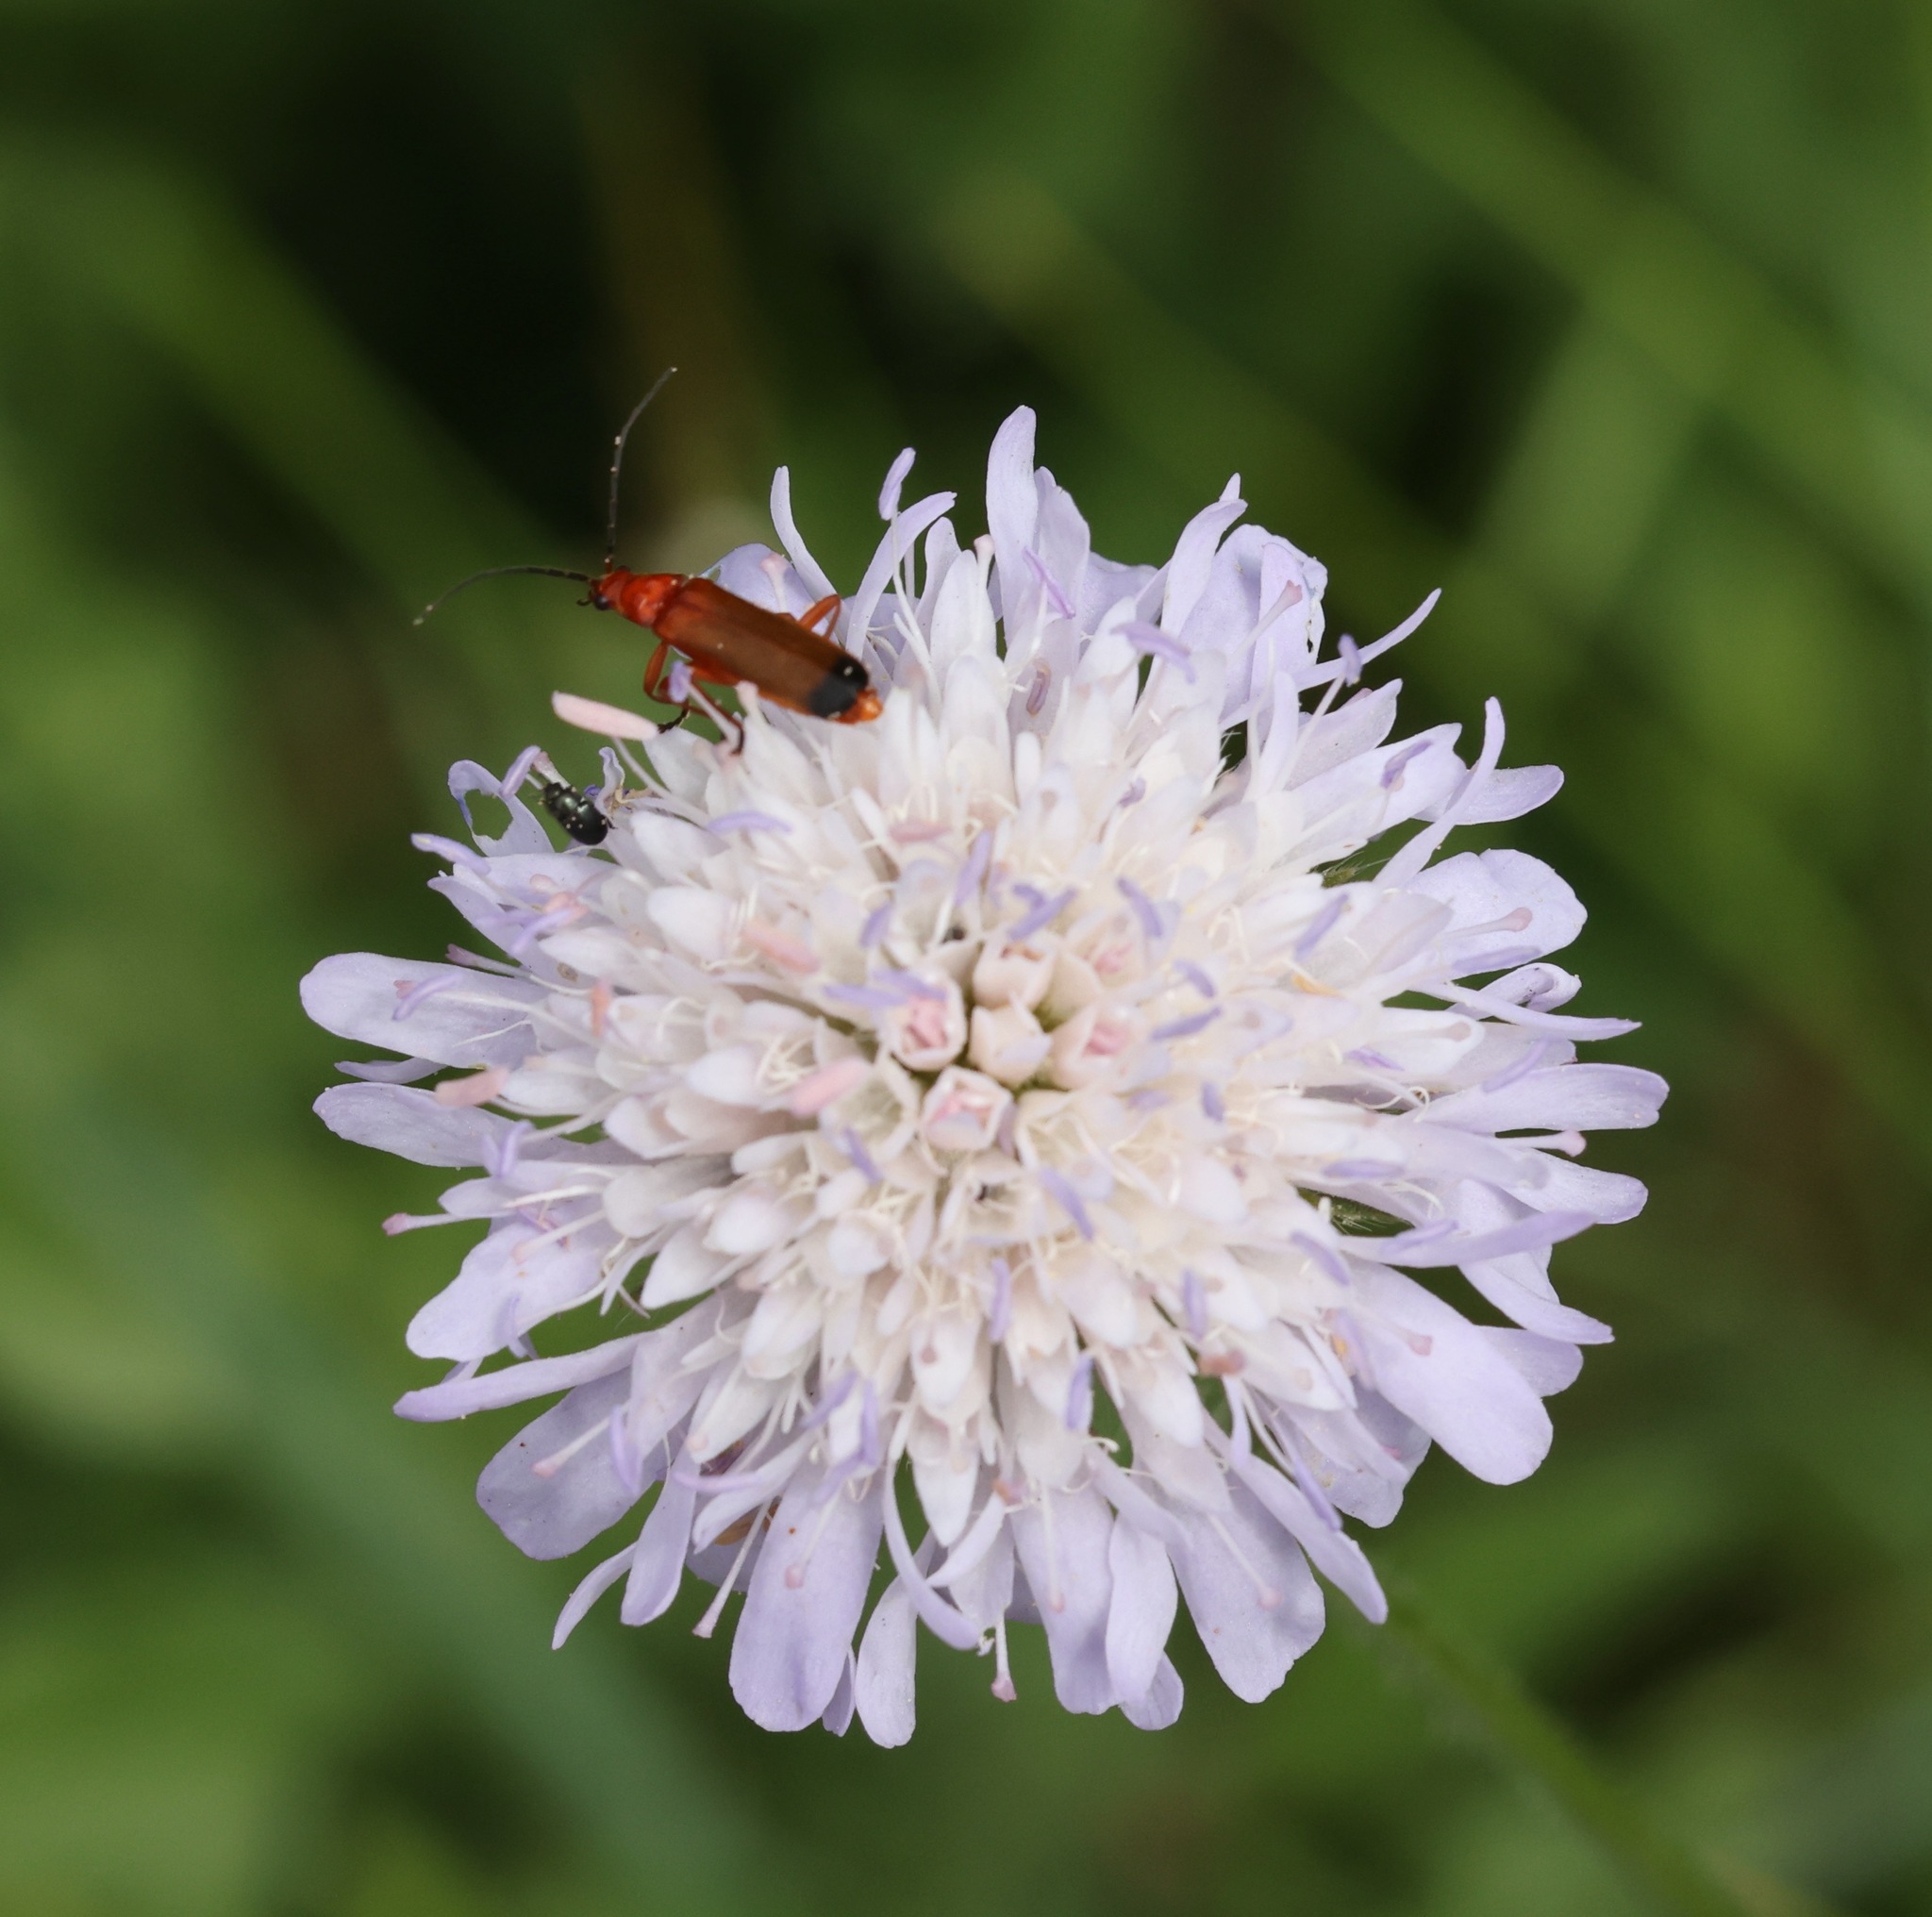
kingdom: Plantae
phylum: Tracheophyta
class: Magnoliopsida
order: Dipsacales
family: Caprifoliaceae
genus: Knautia
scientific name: Knautia arvensis
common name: Field scabiosa
